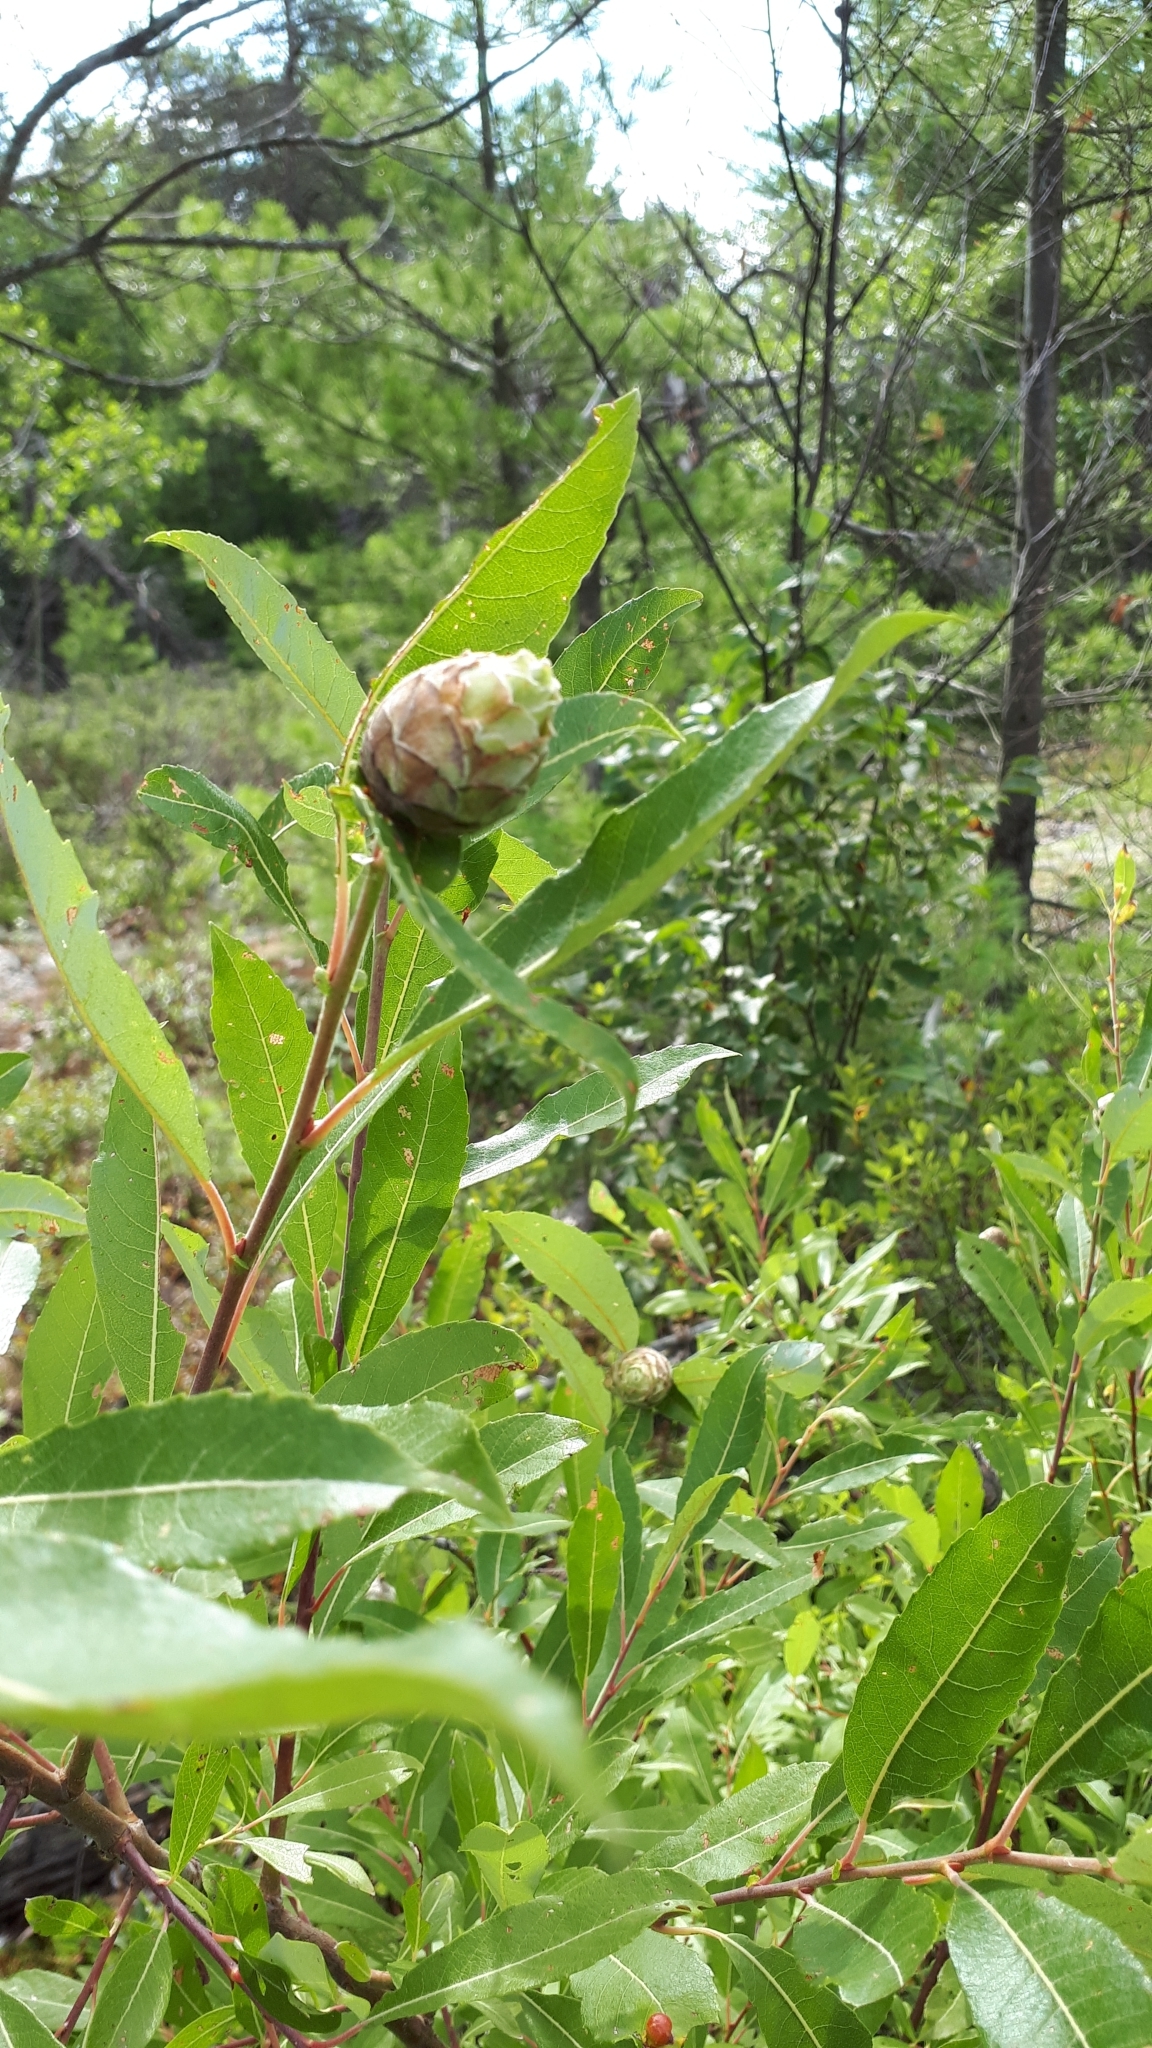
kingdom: Animalia
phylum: Arthropoda
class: Insecta
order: Diptera
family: Cecidomyiidae
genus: Rabdophaga
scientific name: Rabdophaga strobiloides
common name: Willow pinecone gall midge
